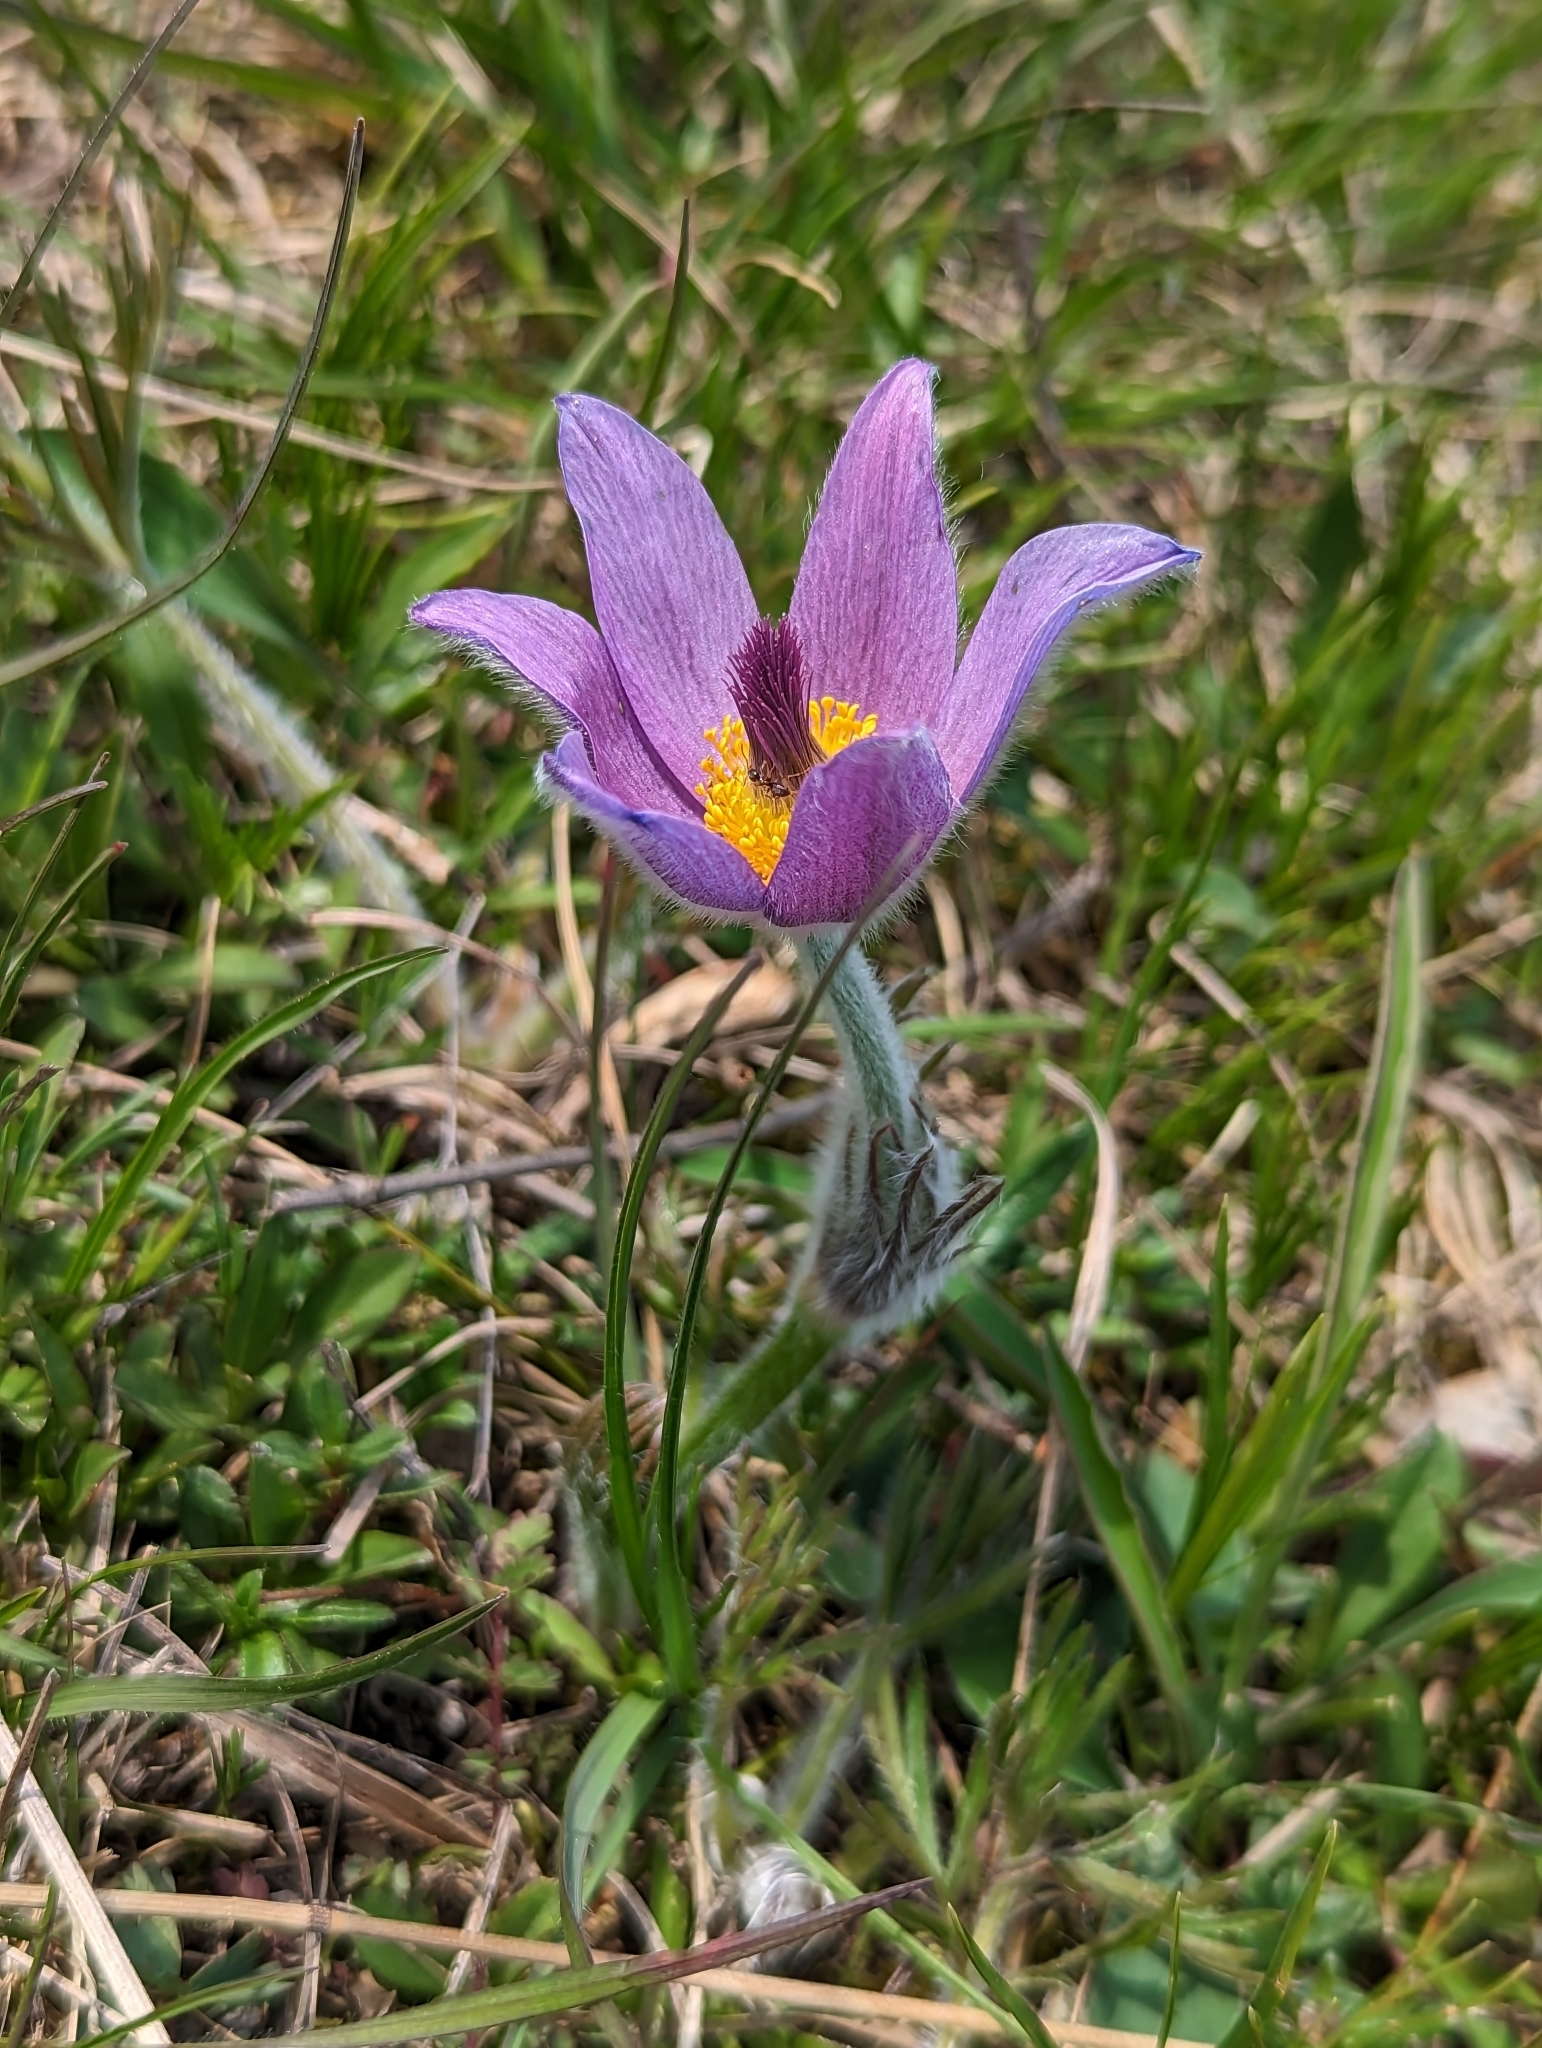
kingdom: Plantae
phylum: Tracheophyta
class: Magnoliopsida
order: Ranunculales
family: Ranunculaceae
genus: Pulsatilla
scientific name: Pulsatilla grandis
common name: Greater pasque flower
